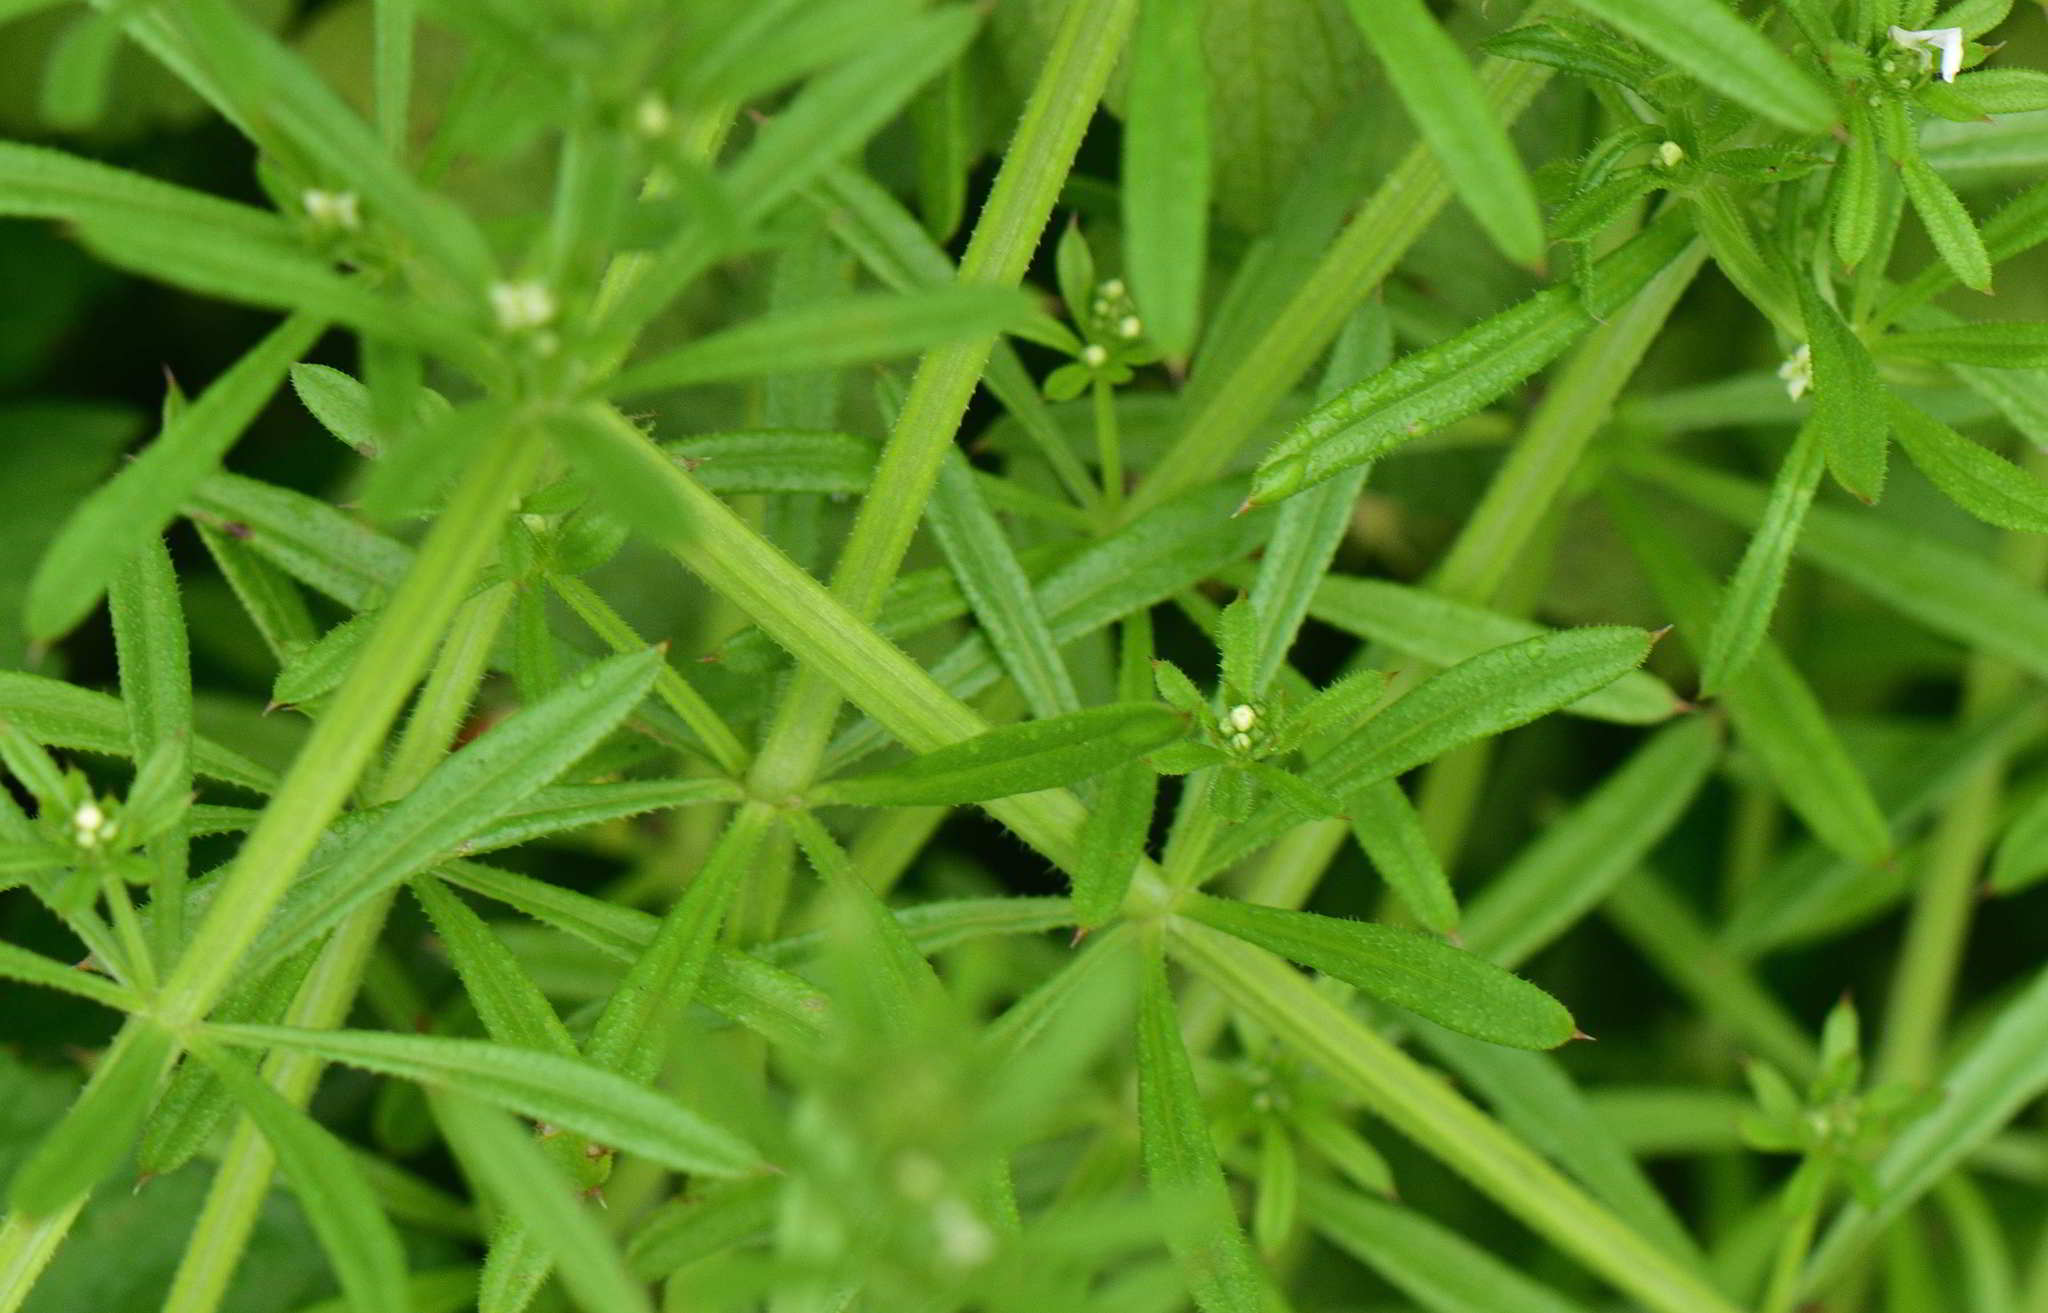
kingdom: Plantae
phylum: Tracheophyta
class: Magnoliopsida
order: Gentianales
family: Rubiaceae
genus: Galium
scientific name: Galium aparine
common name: Cleavers
